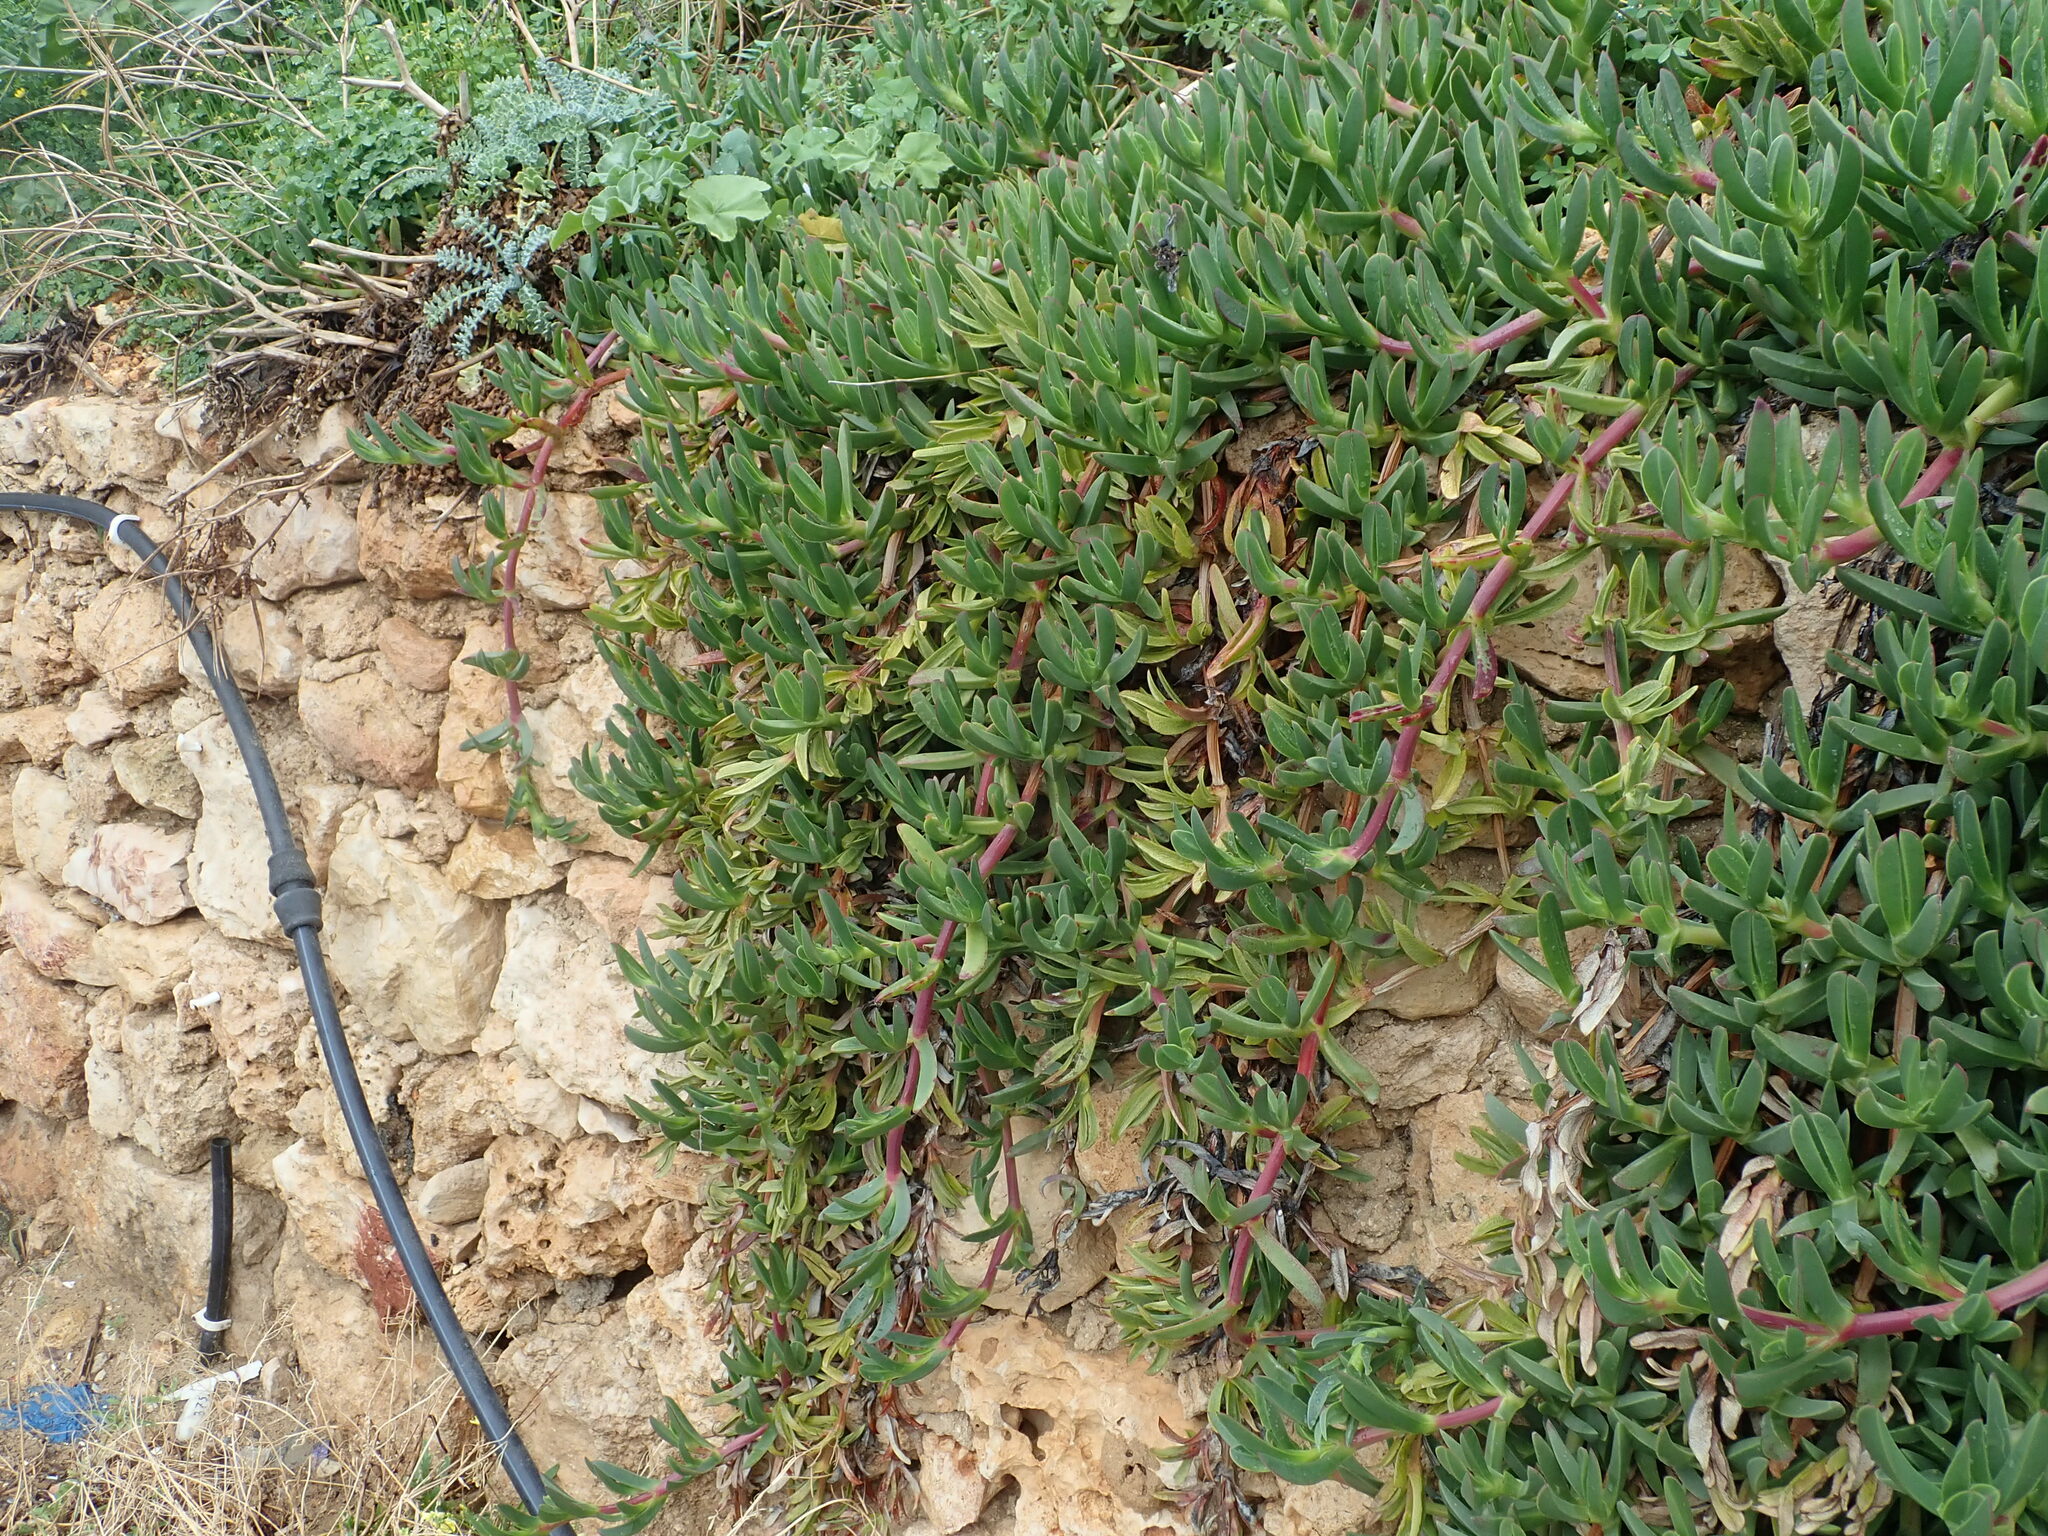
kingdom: Plantae
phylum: Tracheophyta
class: Magnoliopsida
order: Caryophyllales
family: Aizoaceae
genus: Carpobrotus
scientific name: Carpobrotus
